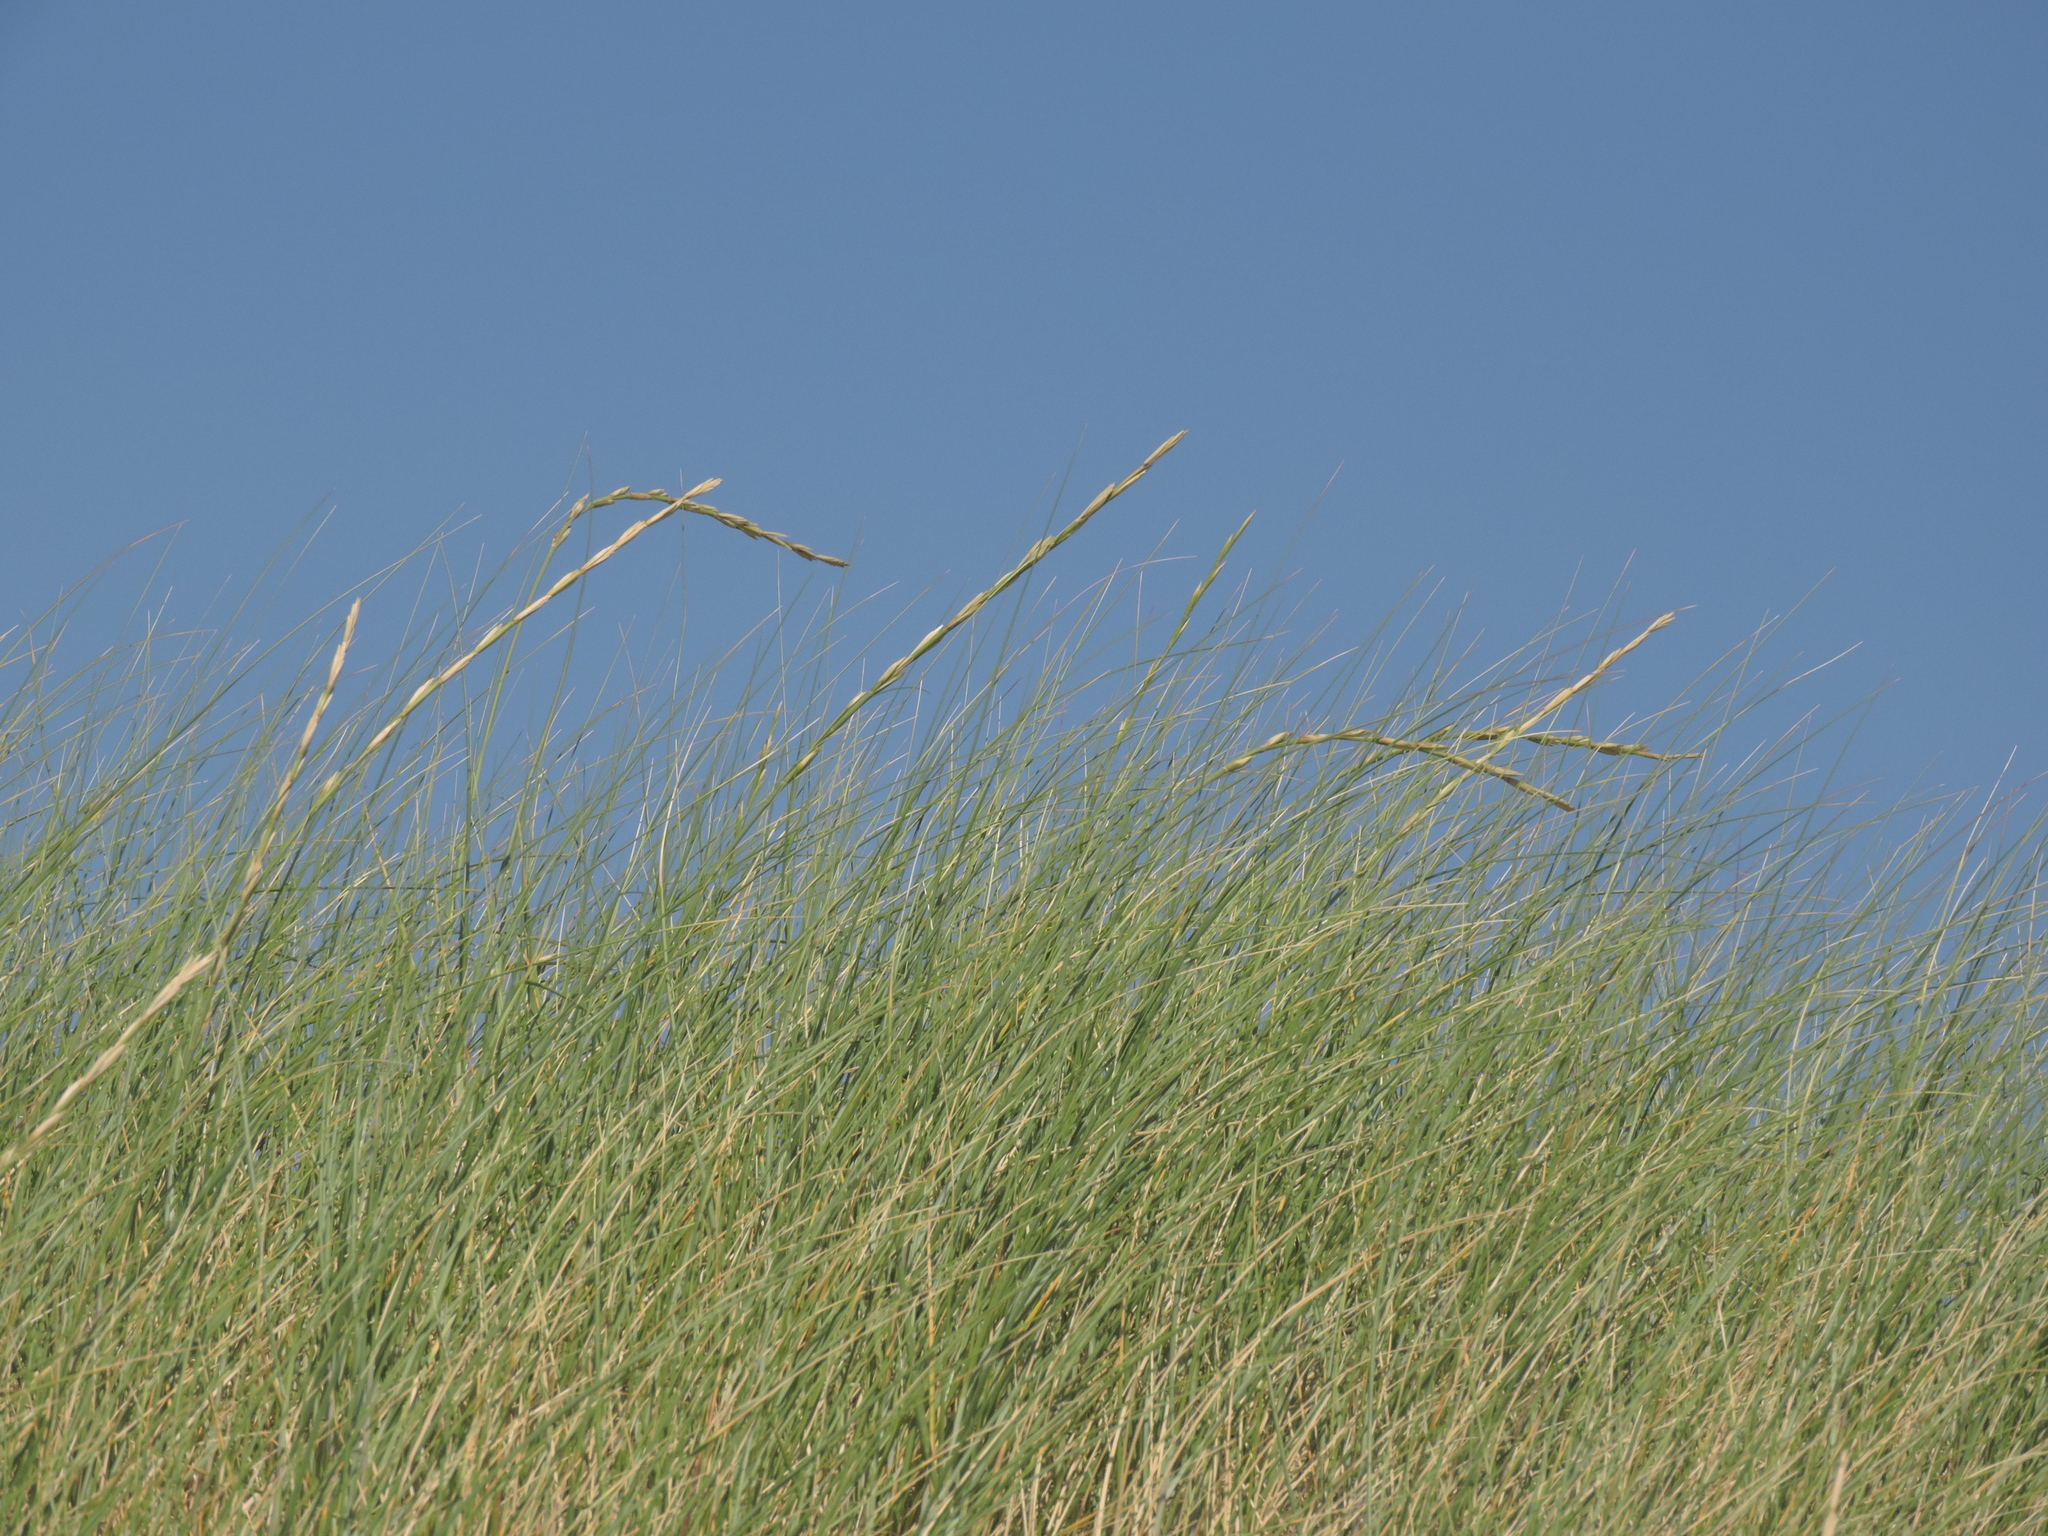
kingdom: Plantae
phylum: Tracheophyta
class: Liliopsida
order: Poales
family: Poaceae
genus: Thinopyrum
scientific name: Thinopyrum junceum
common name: Russian wheatgrass
